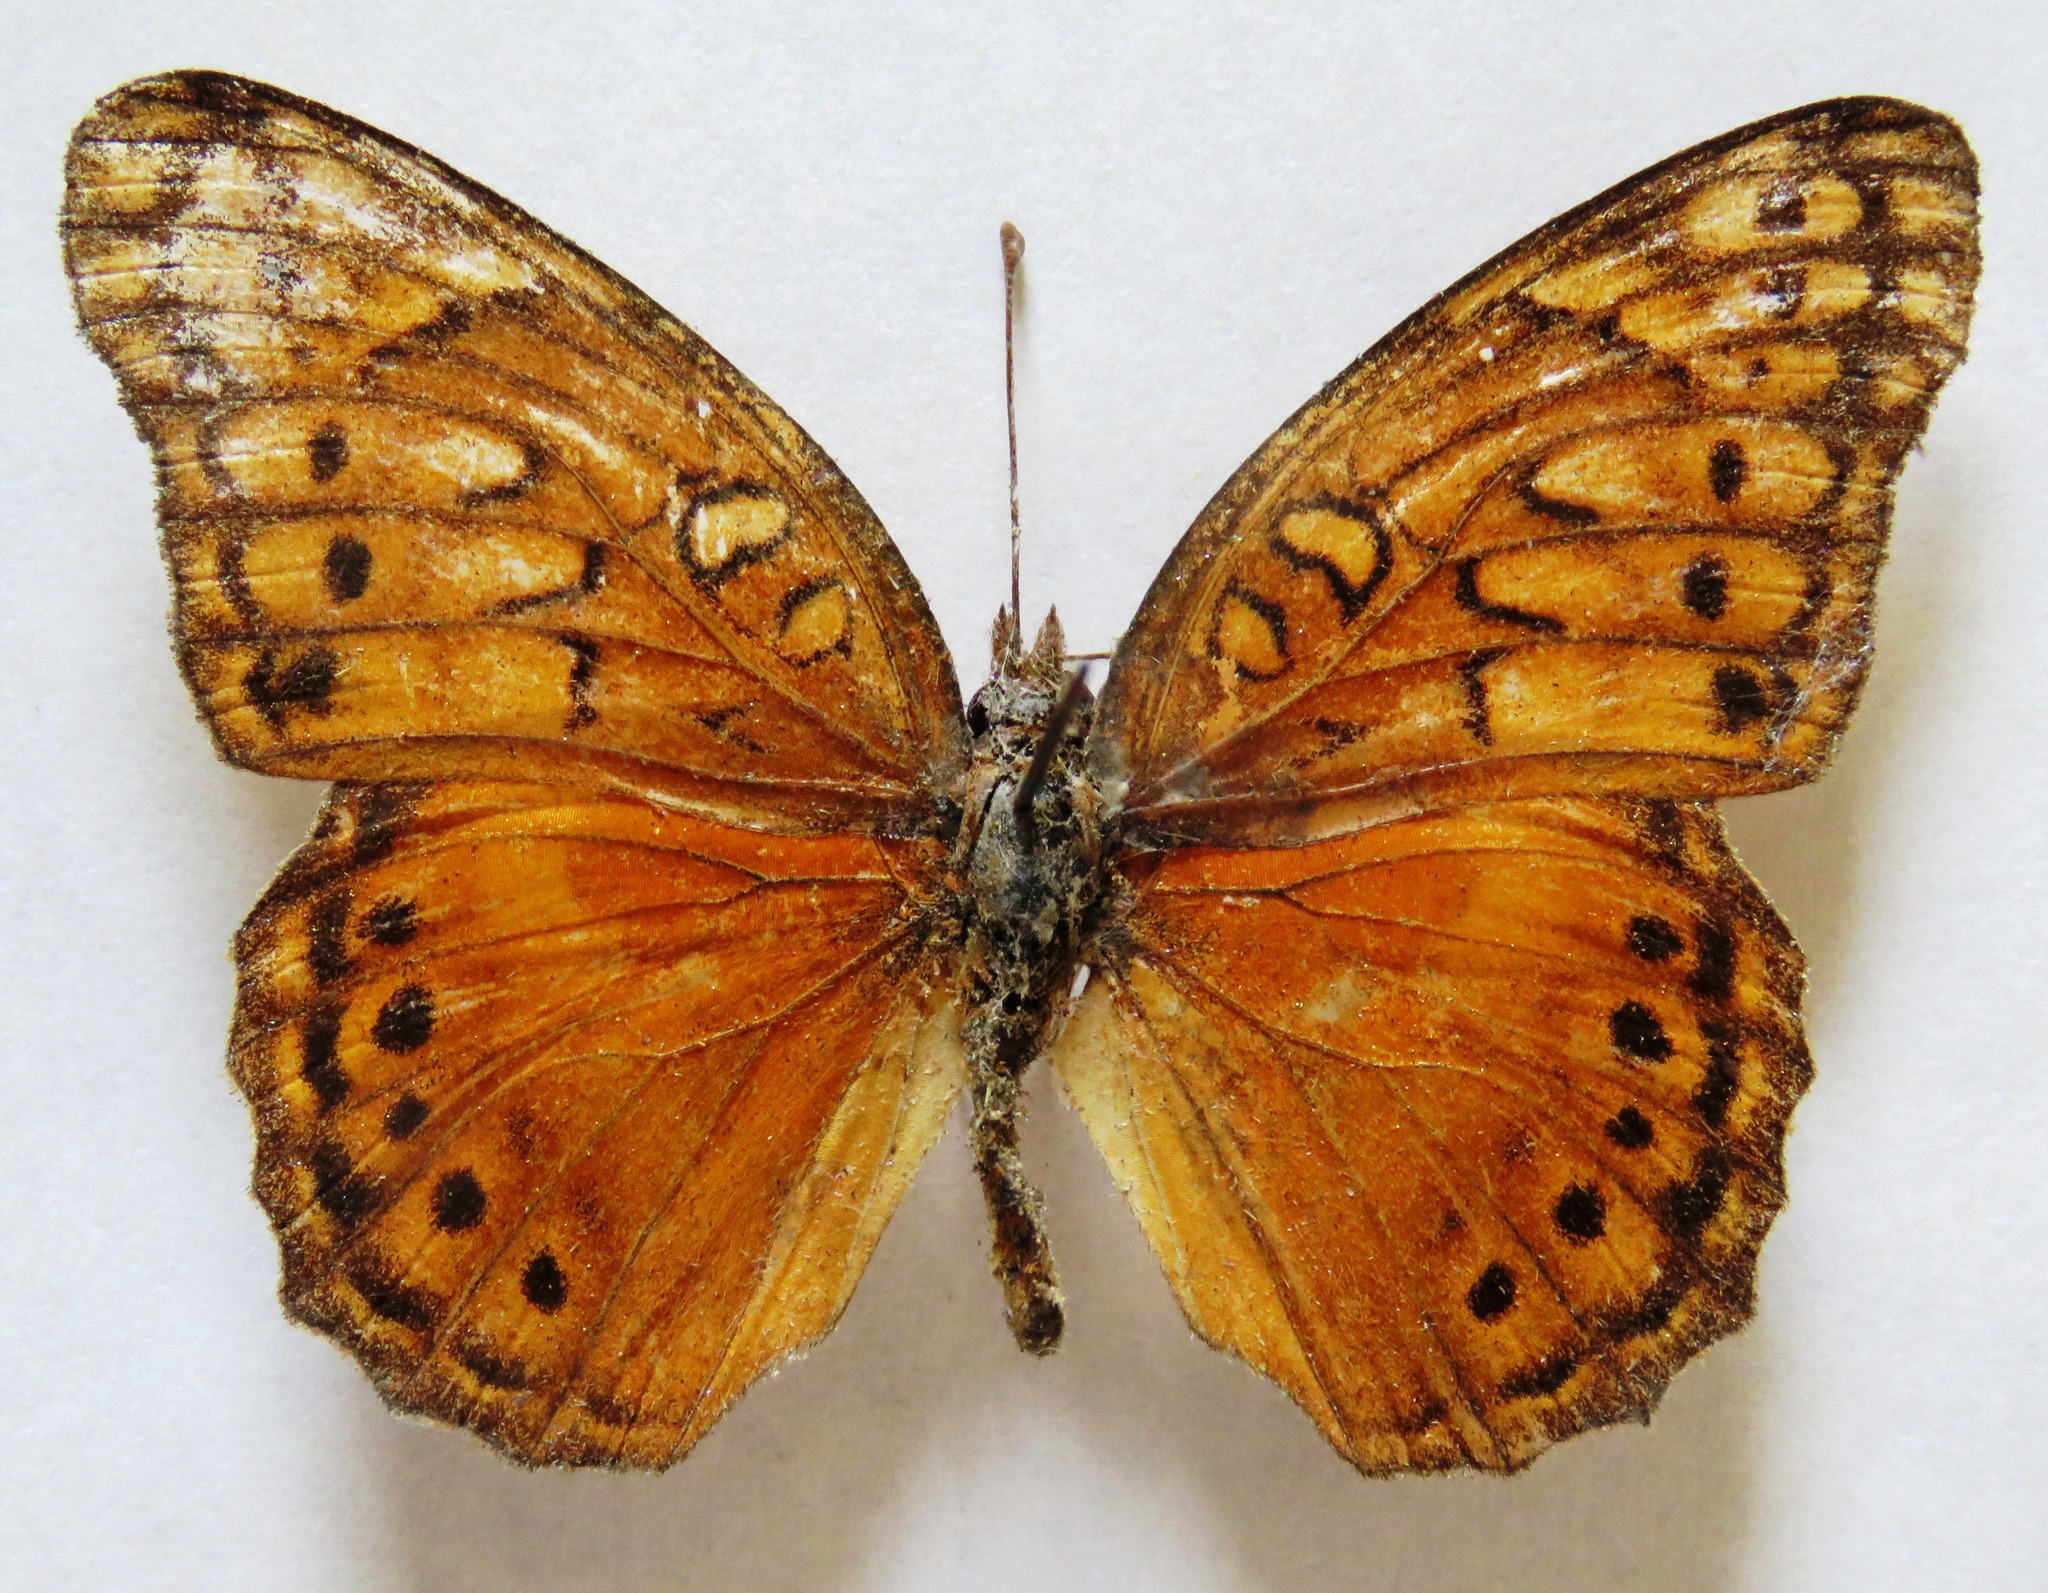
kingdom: Animalia
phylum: Arthropoda
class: Insecta
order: Lepidoptera
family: Nymphalidae
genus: Euptoieta
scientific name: Euptoieta hegesia
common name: Mexican fritillary
